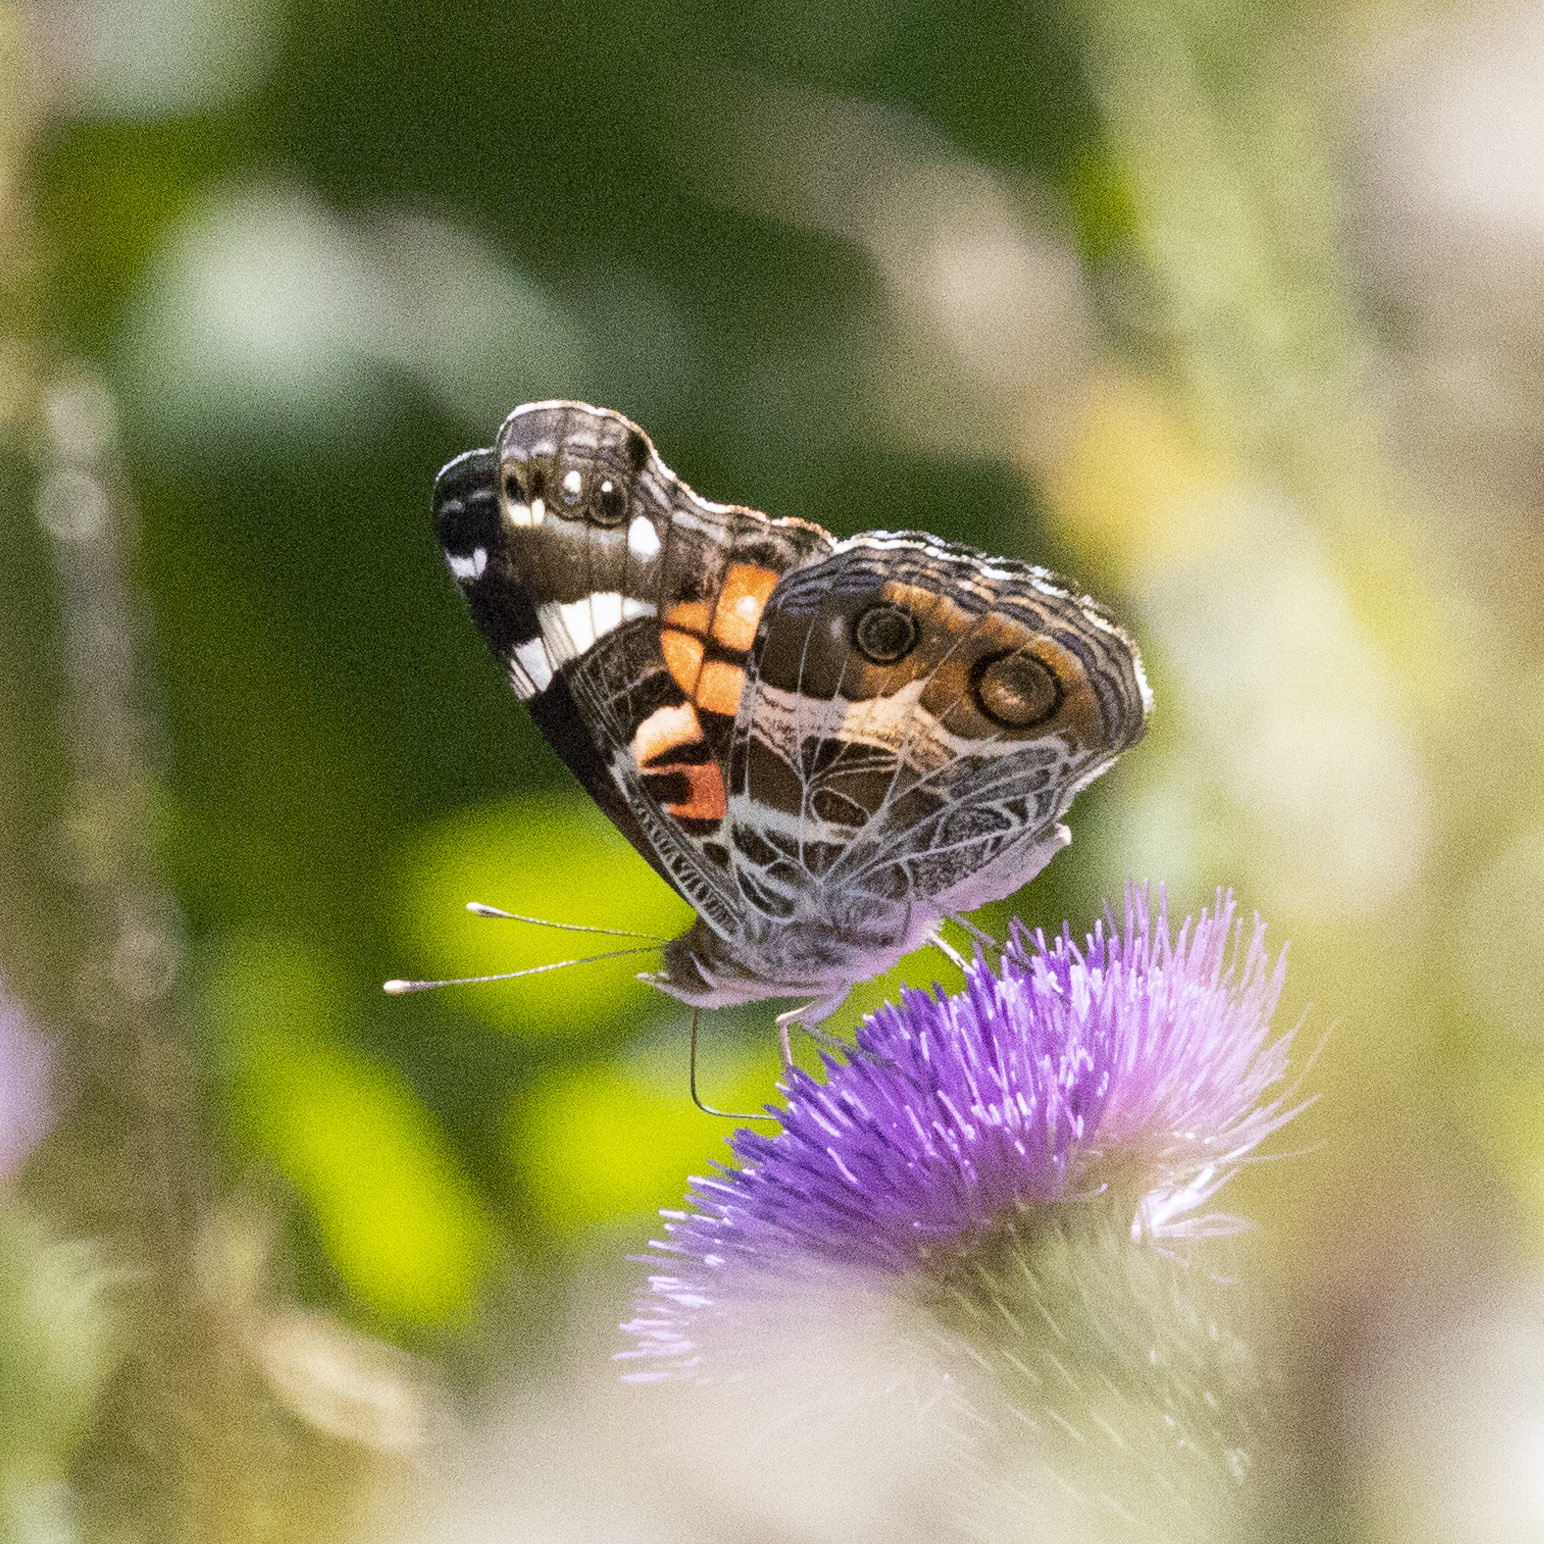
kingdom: Animalia
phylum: Arthropoda
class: Insecta
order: Lepidoptera
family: Nymphalidae
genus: Vanessa
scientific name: Vanessa virginiensis
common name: American lady
